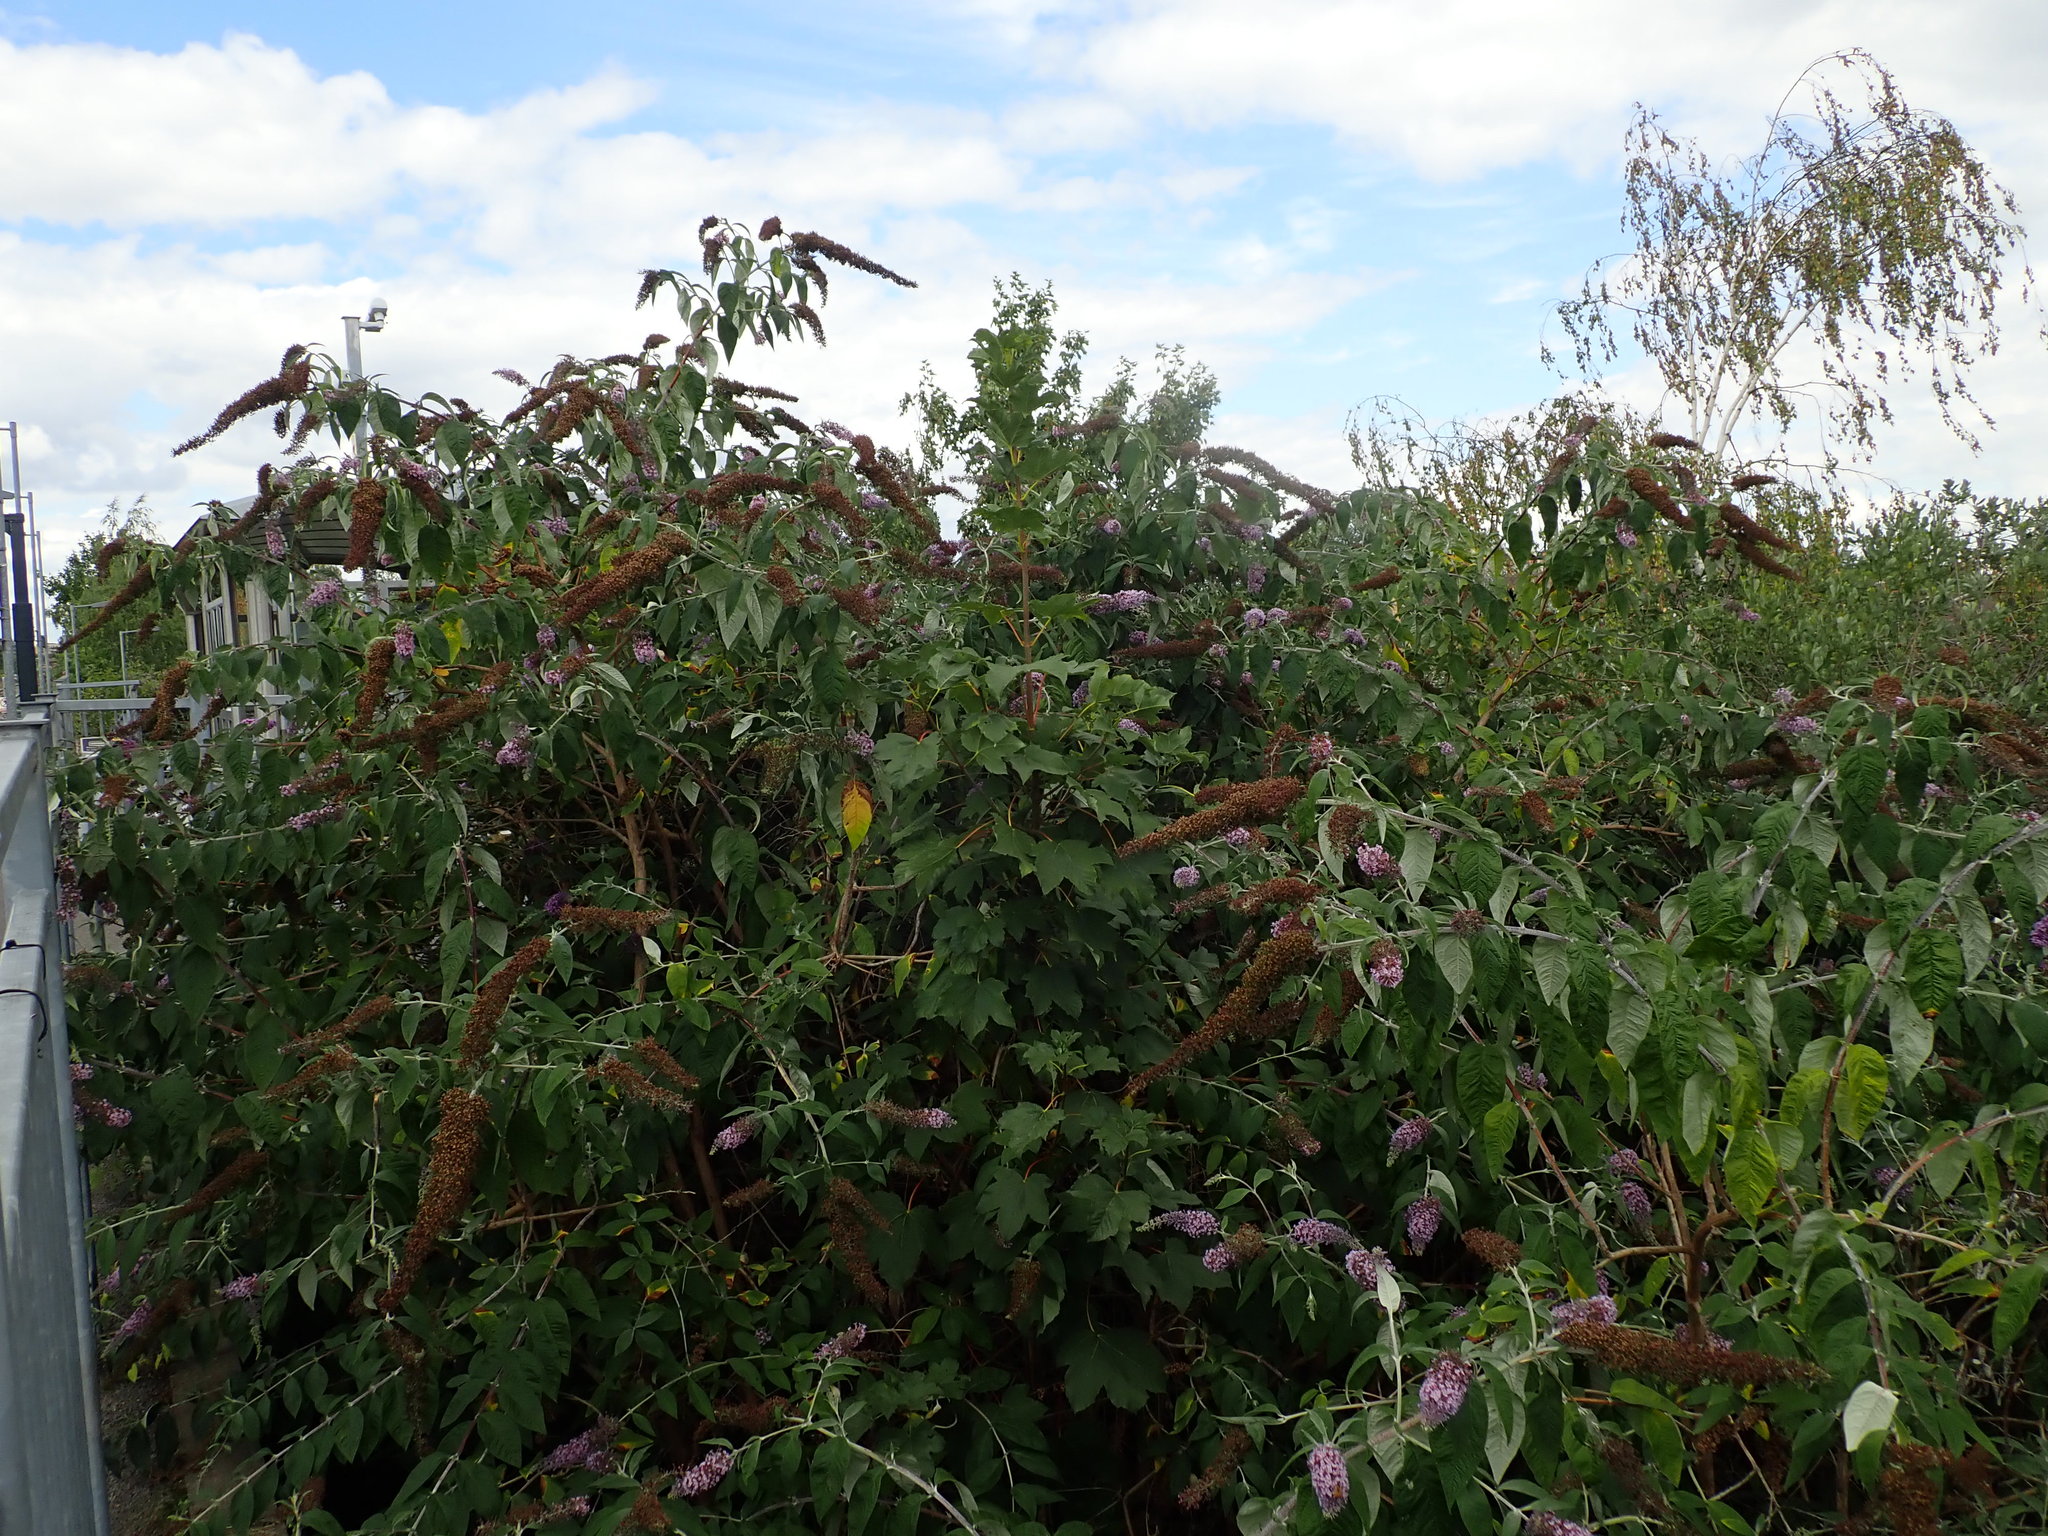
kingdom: Plantae
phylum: Tracheophyta
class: Magnoliopsida
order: Lamiales
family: Scrophulariaceae
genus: Buddleja
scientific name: Buddleja davidii
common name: Butterfly-bush
